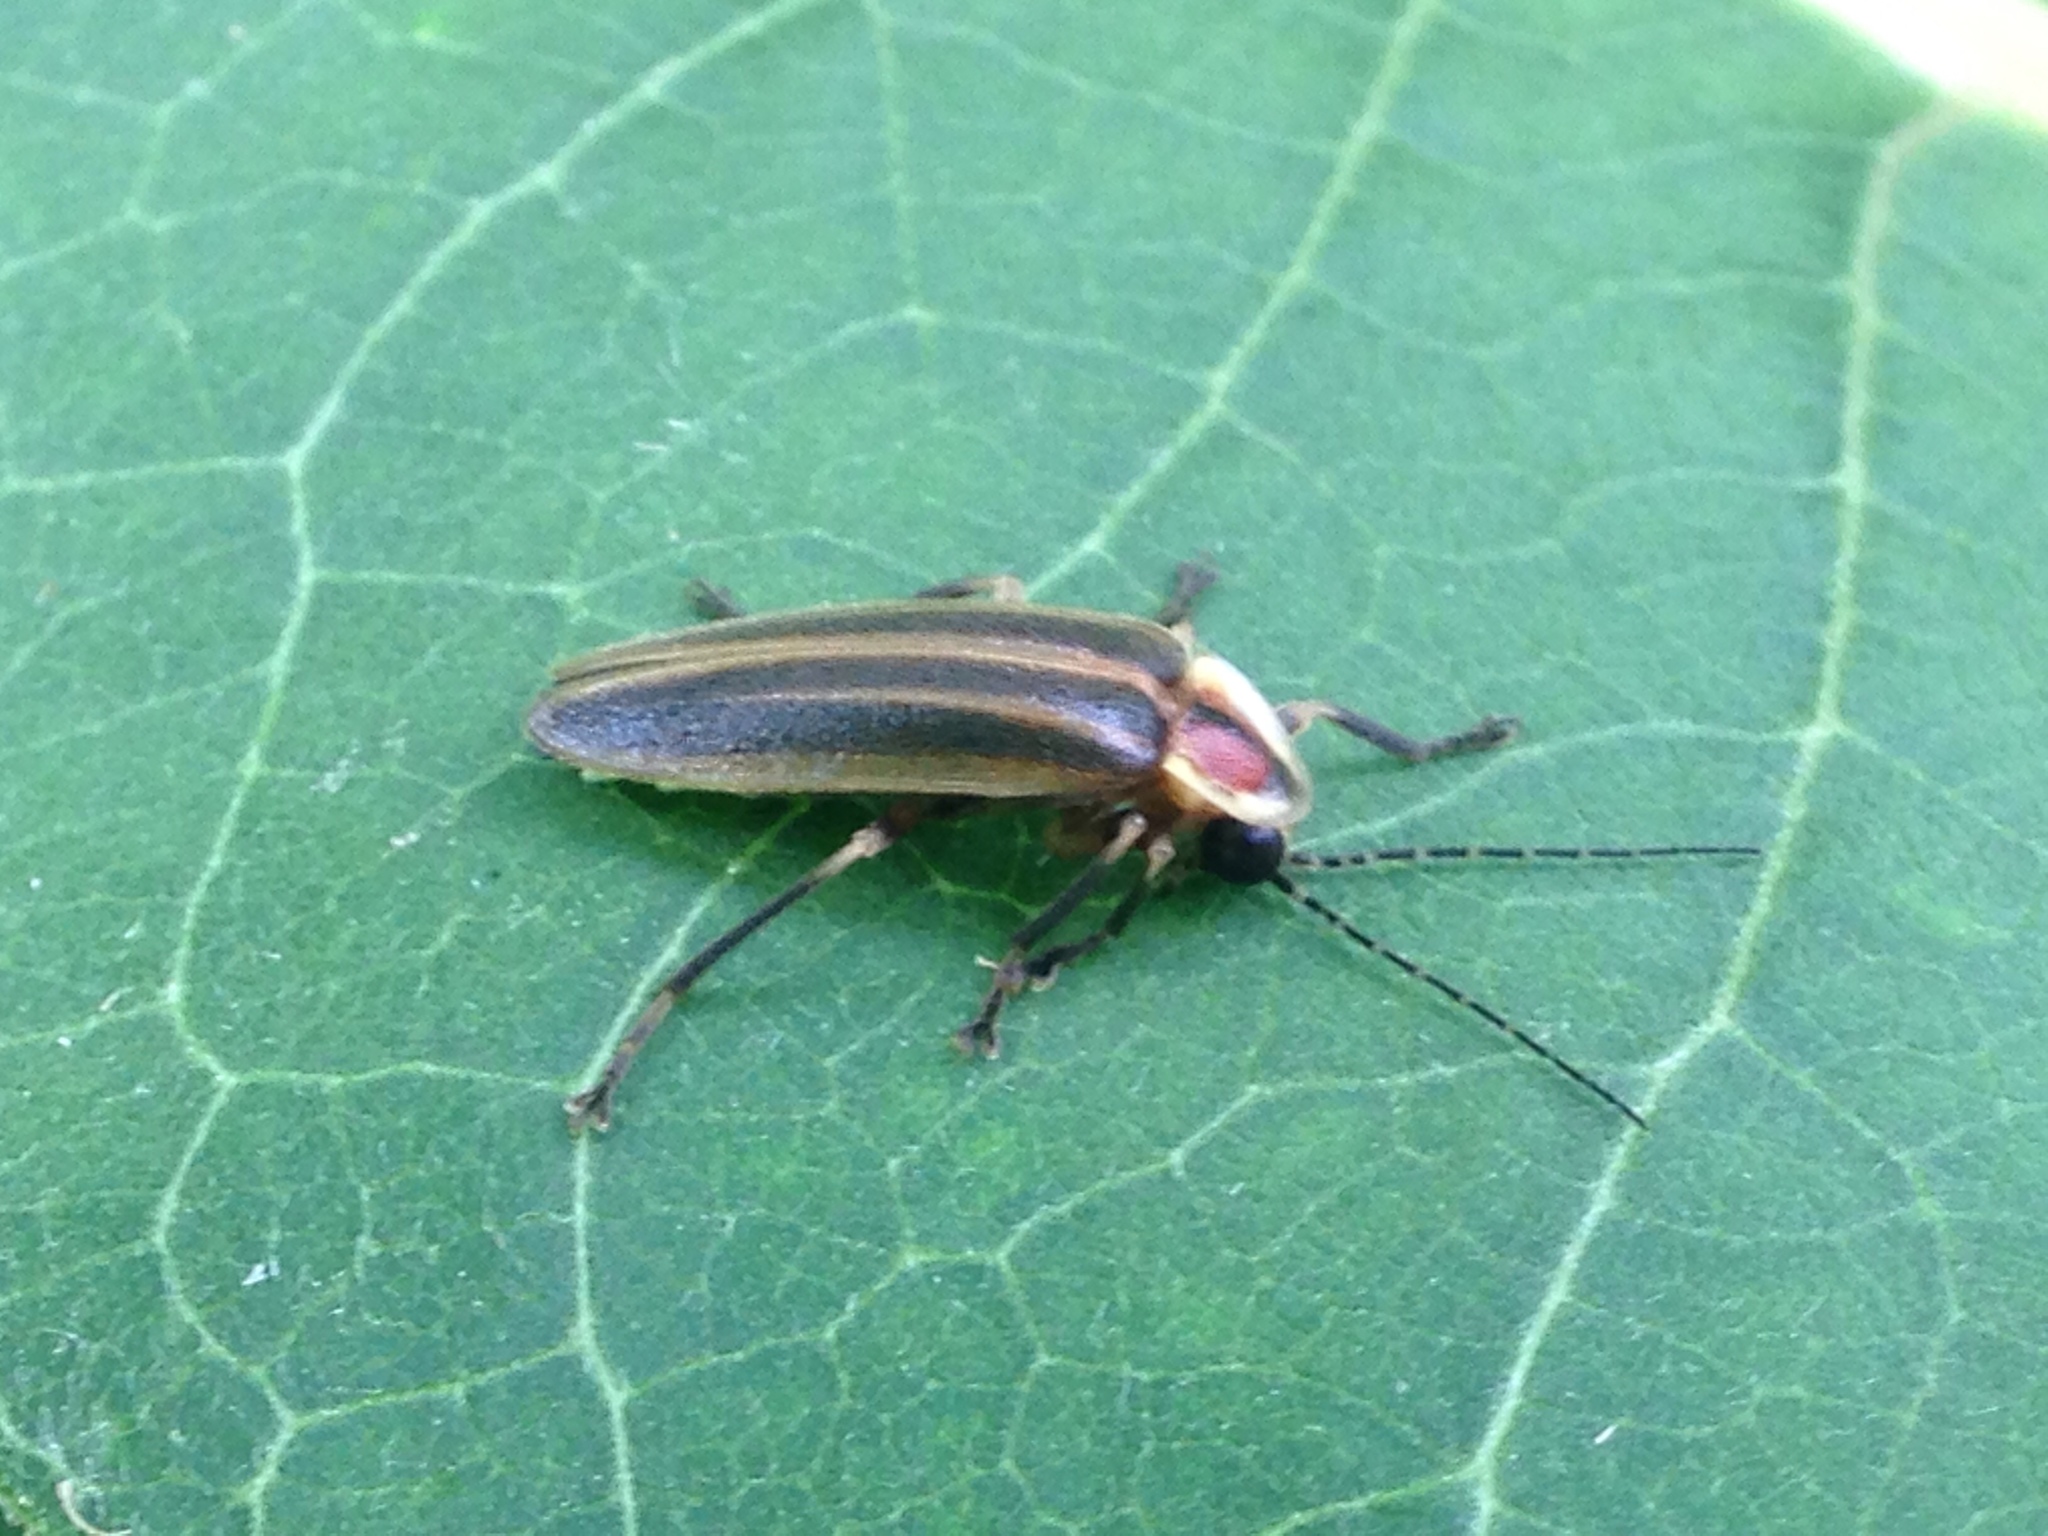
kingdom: Animalia
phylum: Arthropoda
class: Insecta
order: Coleoptera
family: Lampyridae
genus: Photuris
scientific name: Photuris
